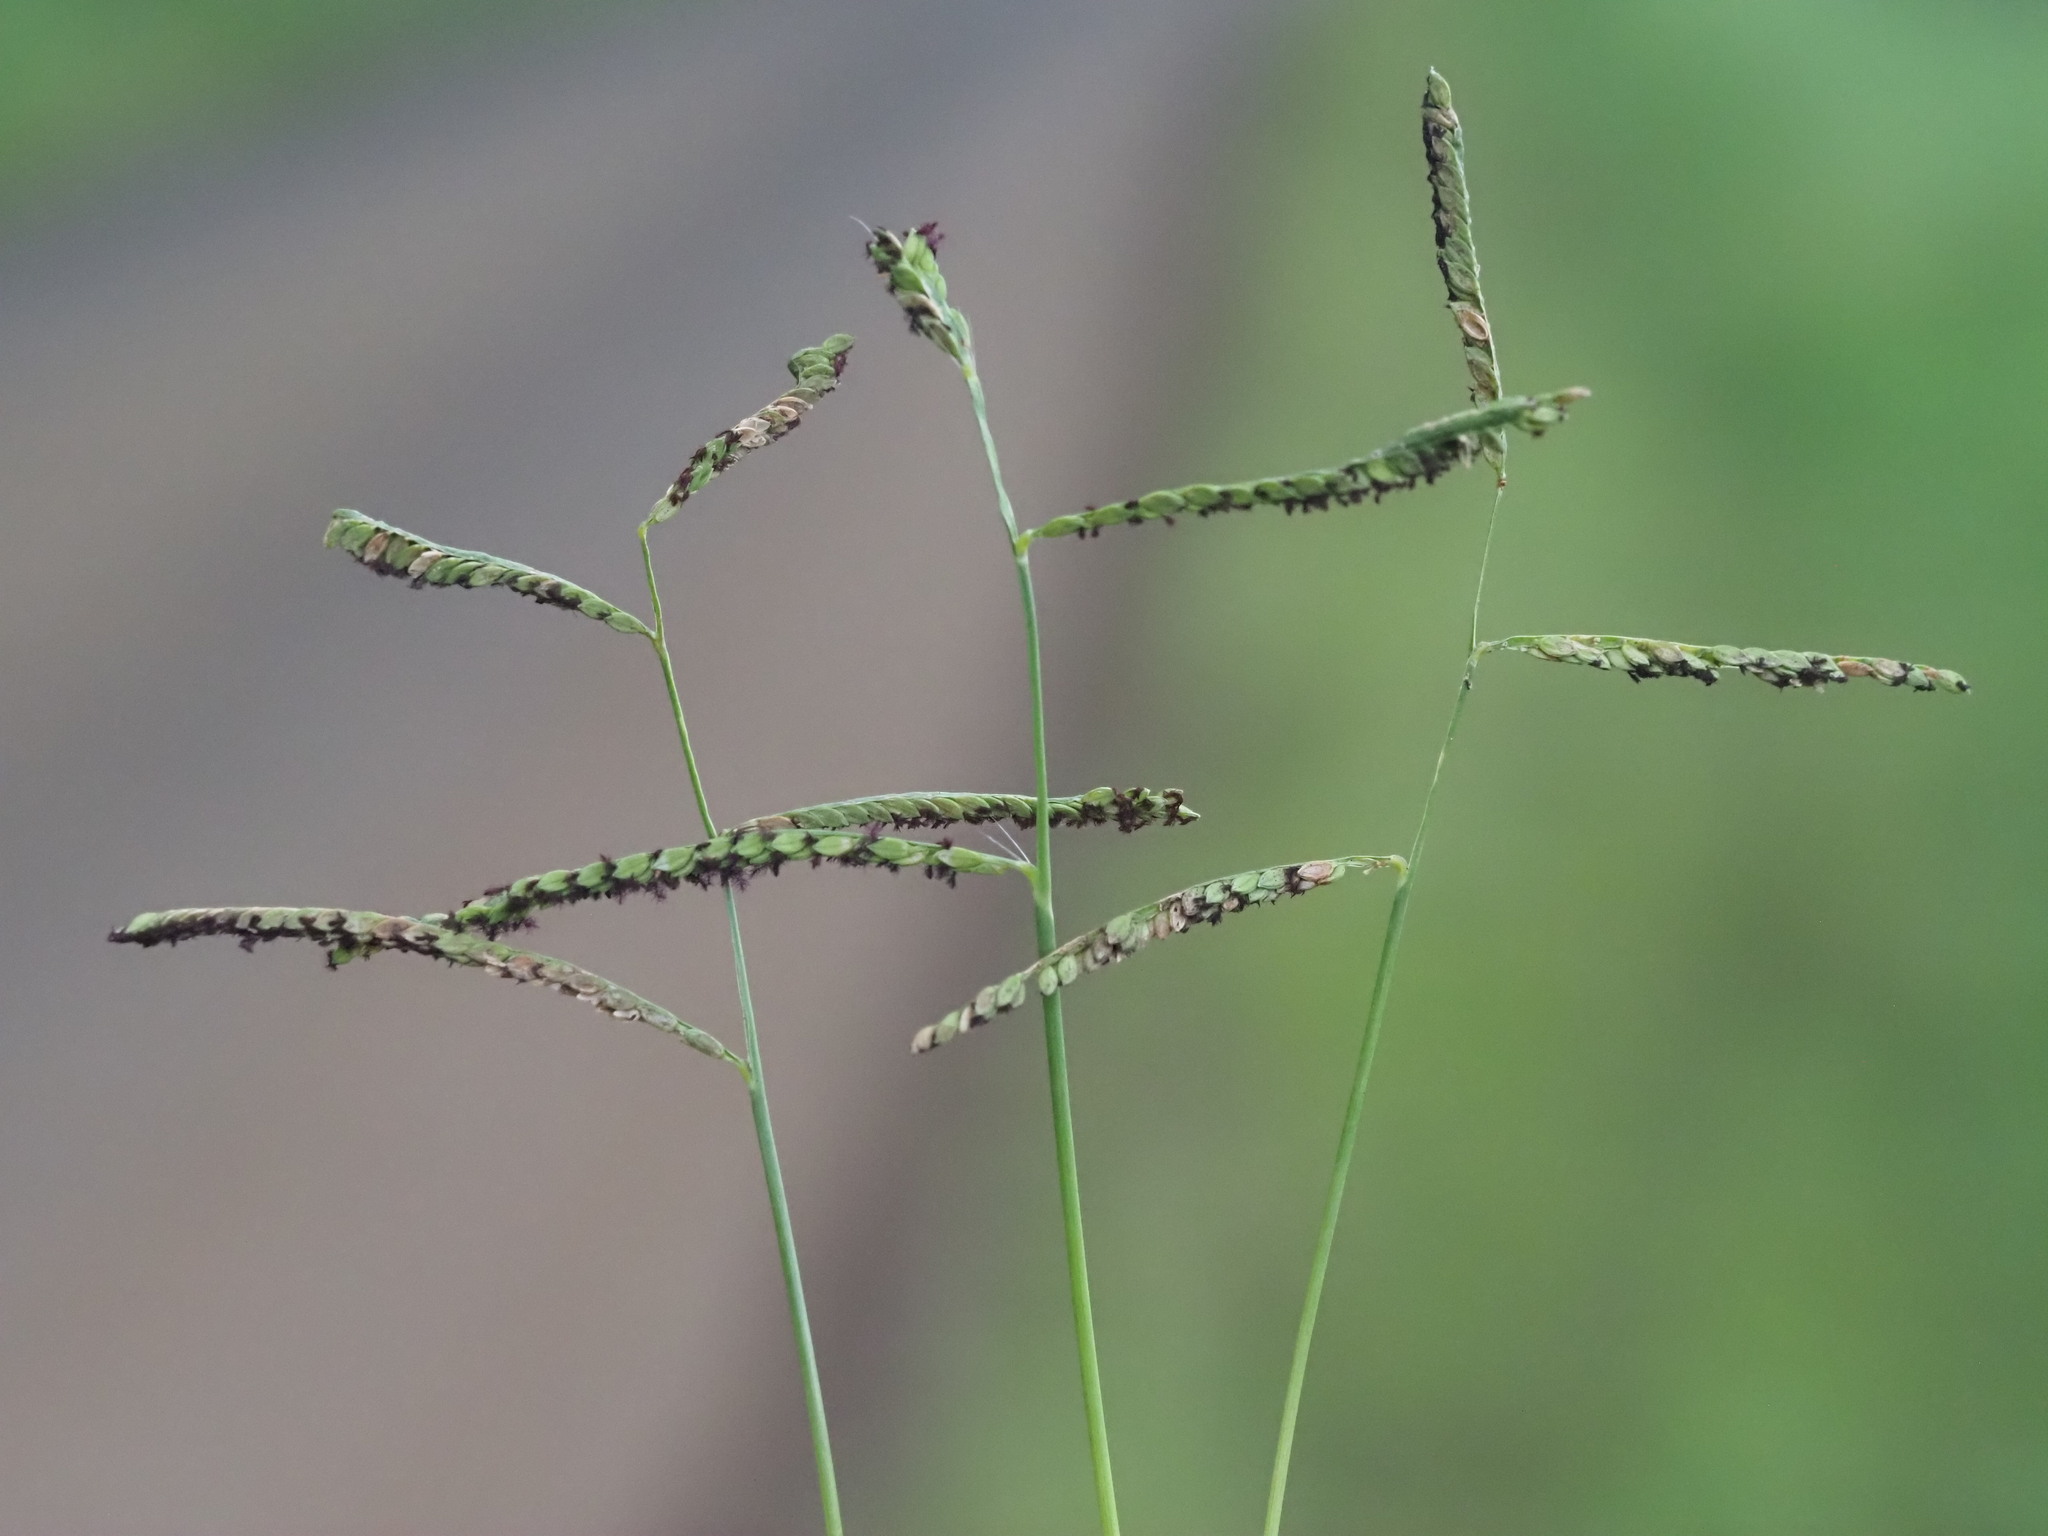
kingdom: Plantae
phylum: Tracheophyta
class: Liliopsida
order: Poales
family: Poaceae
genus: Paspalum
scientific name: Paspalum jesuiticum
